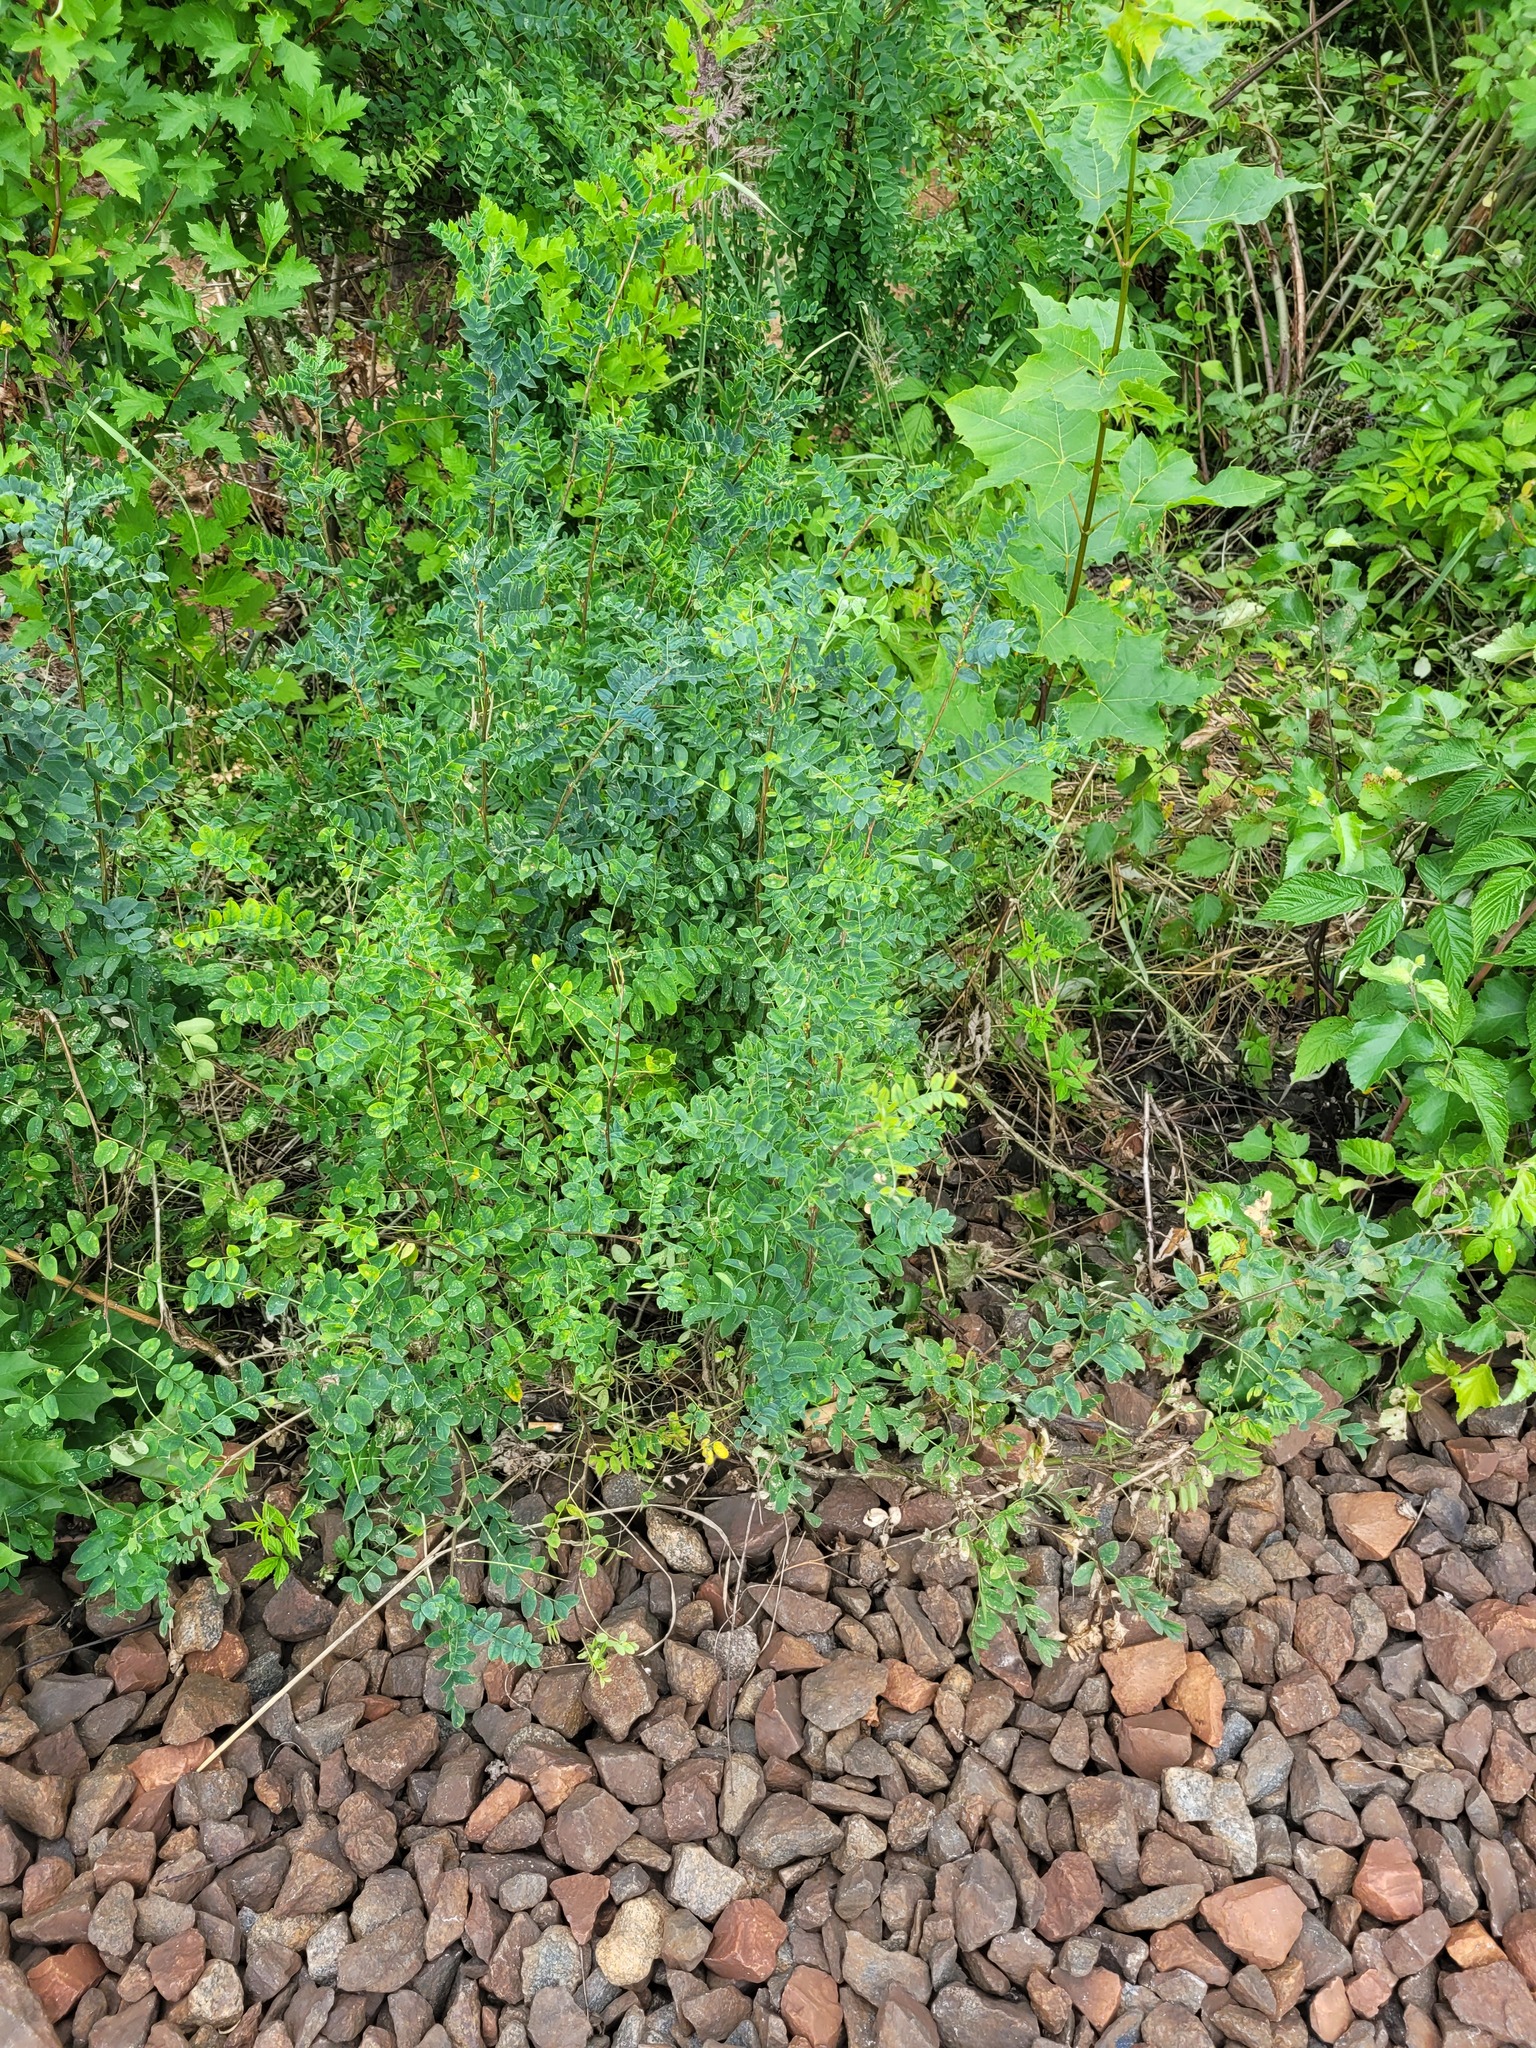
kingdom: Plantae
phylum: Tracheophyta
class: Magnoliopsida
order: Fabales
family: Fabaceae
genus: Caragana
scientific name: Caragana arborescens
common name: Siberian peashrub
